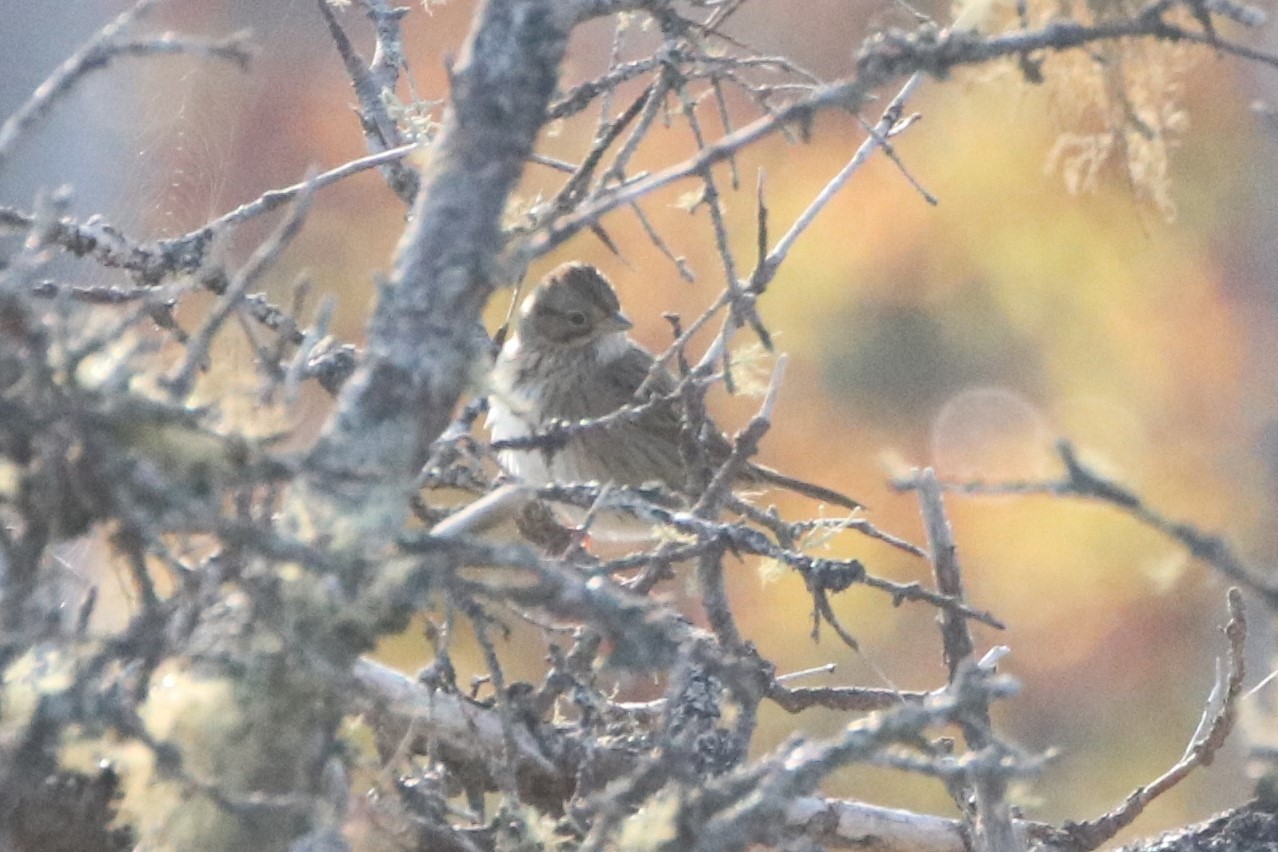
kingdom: Animalia
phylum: Chordata
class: Aves
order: Passeriformes
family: Passerellidae
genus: Melospiza
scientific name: Melospiza lincolnii
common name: Lincoln's sparrow
